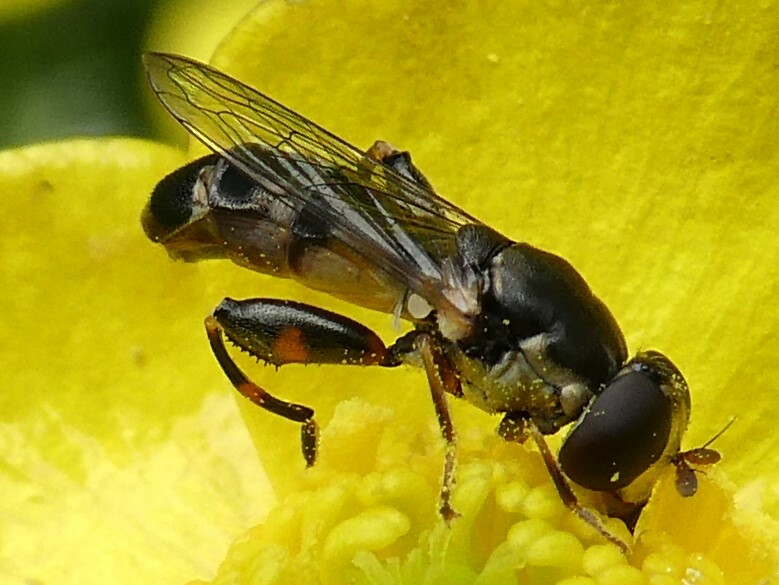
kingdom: Animalia
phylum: Arthropoda
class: Insecta
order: Diptera
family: Syrphidae
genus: Syritta
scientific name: Syritta pipiens
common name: Hover fly
